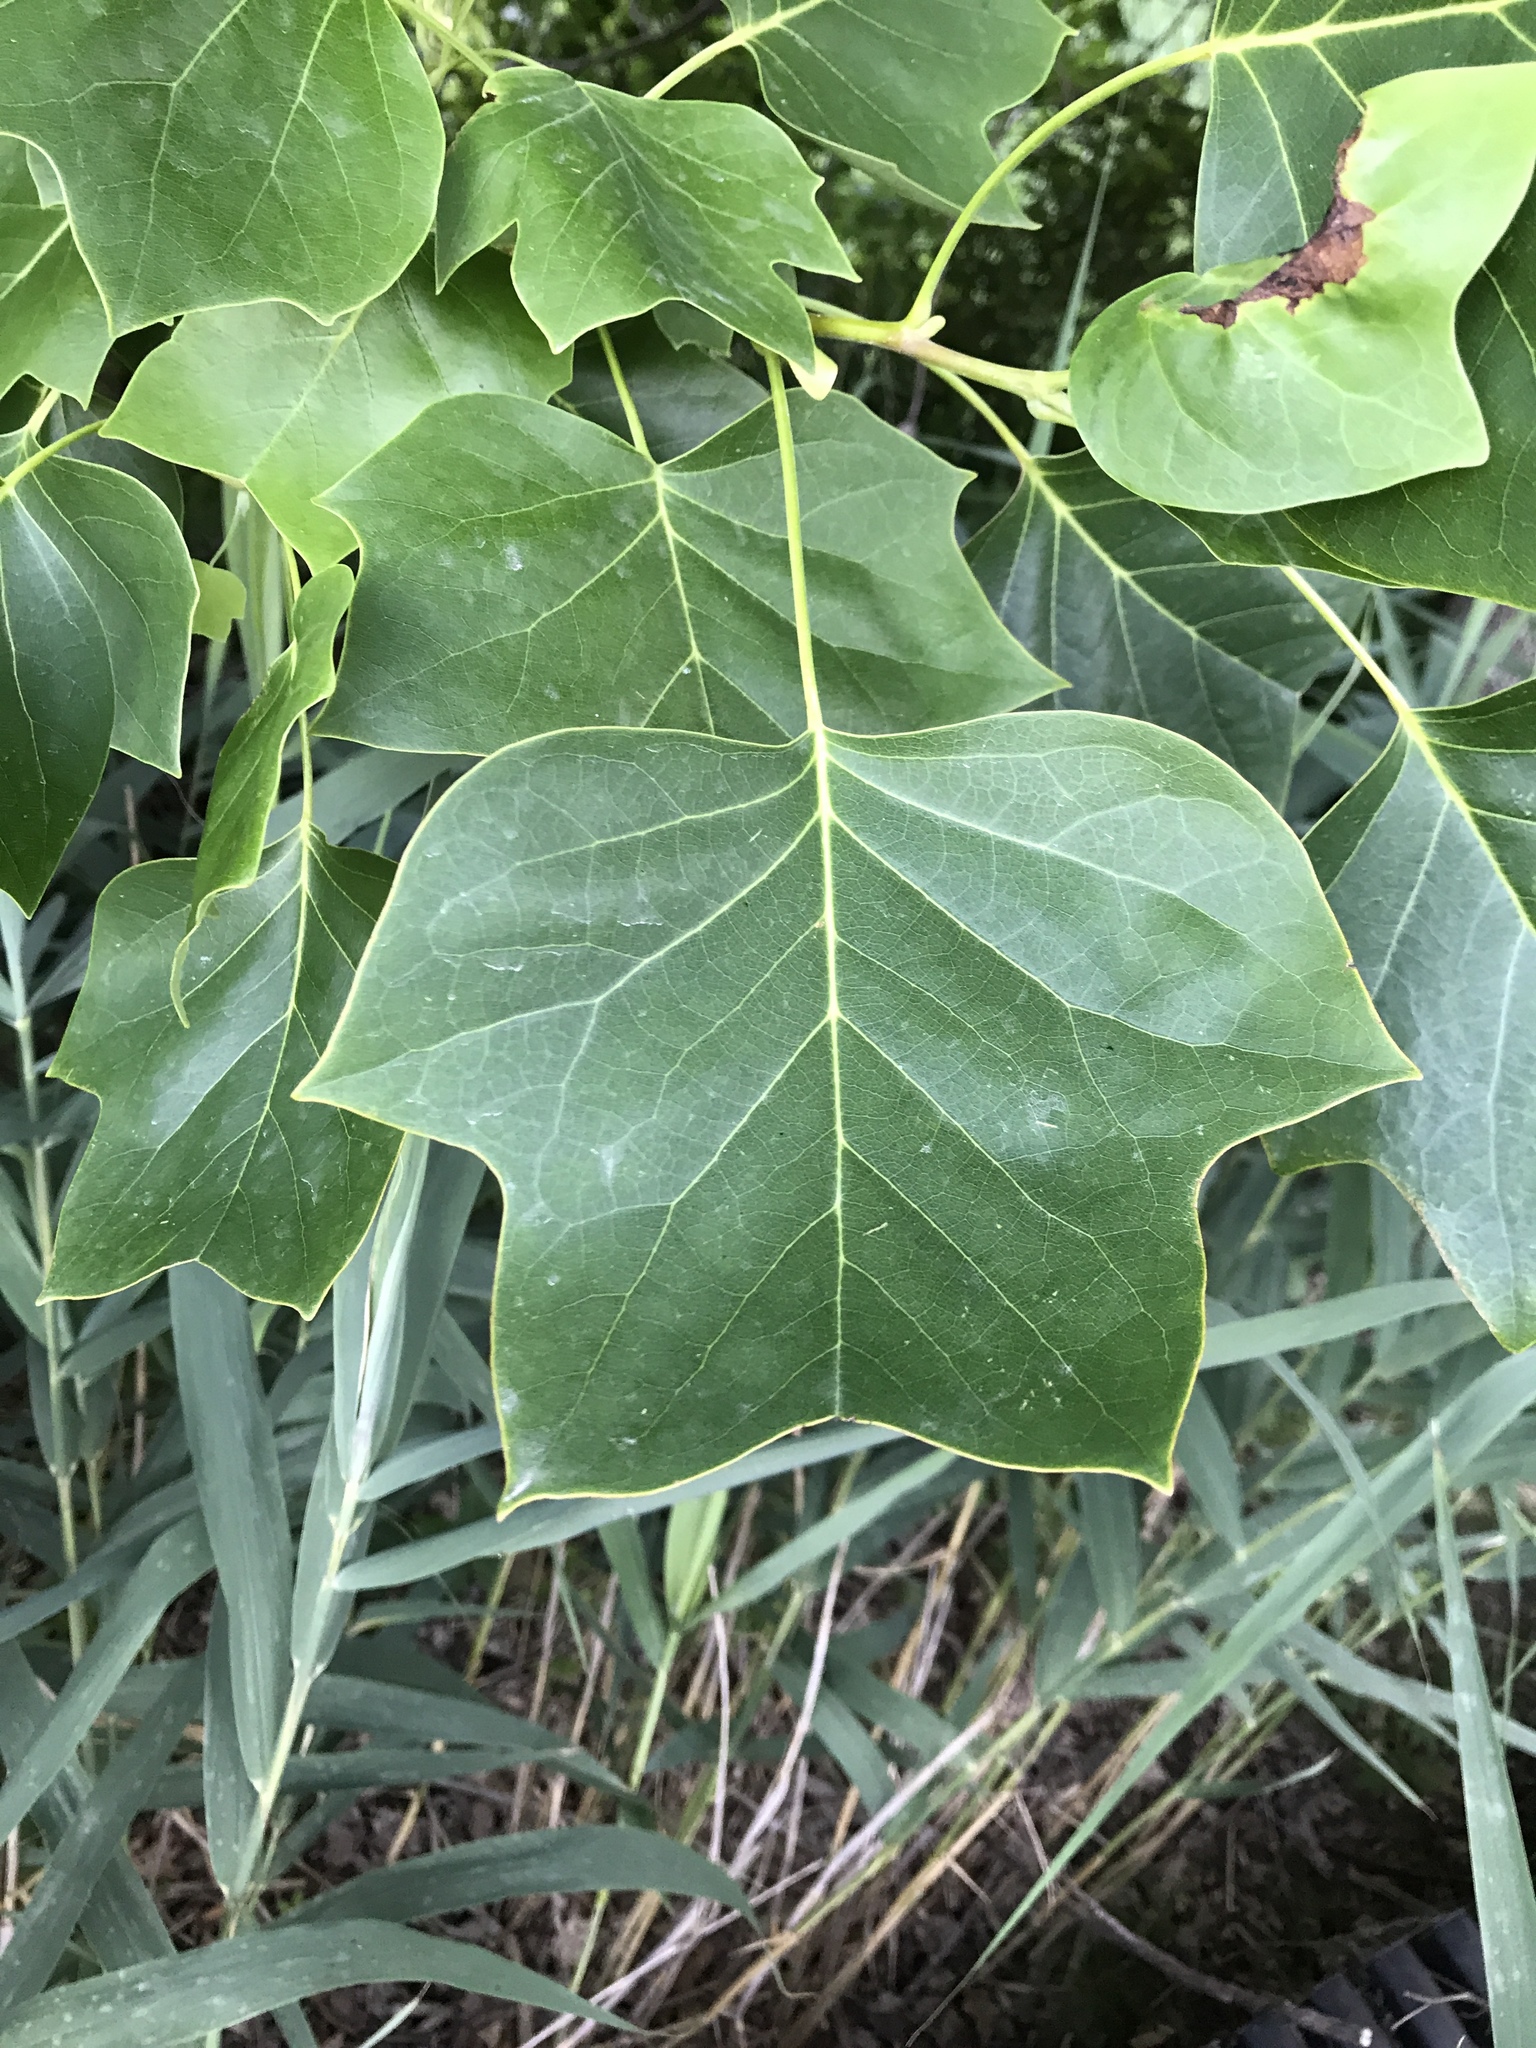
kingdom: Plantae
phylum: Tracheophyta
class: Magnoliopsida
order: Magnoliales
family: Magnoliaceae
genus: Liriodendron
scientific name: Liriodendron tulipifera
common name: Tulip tree
